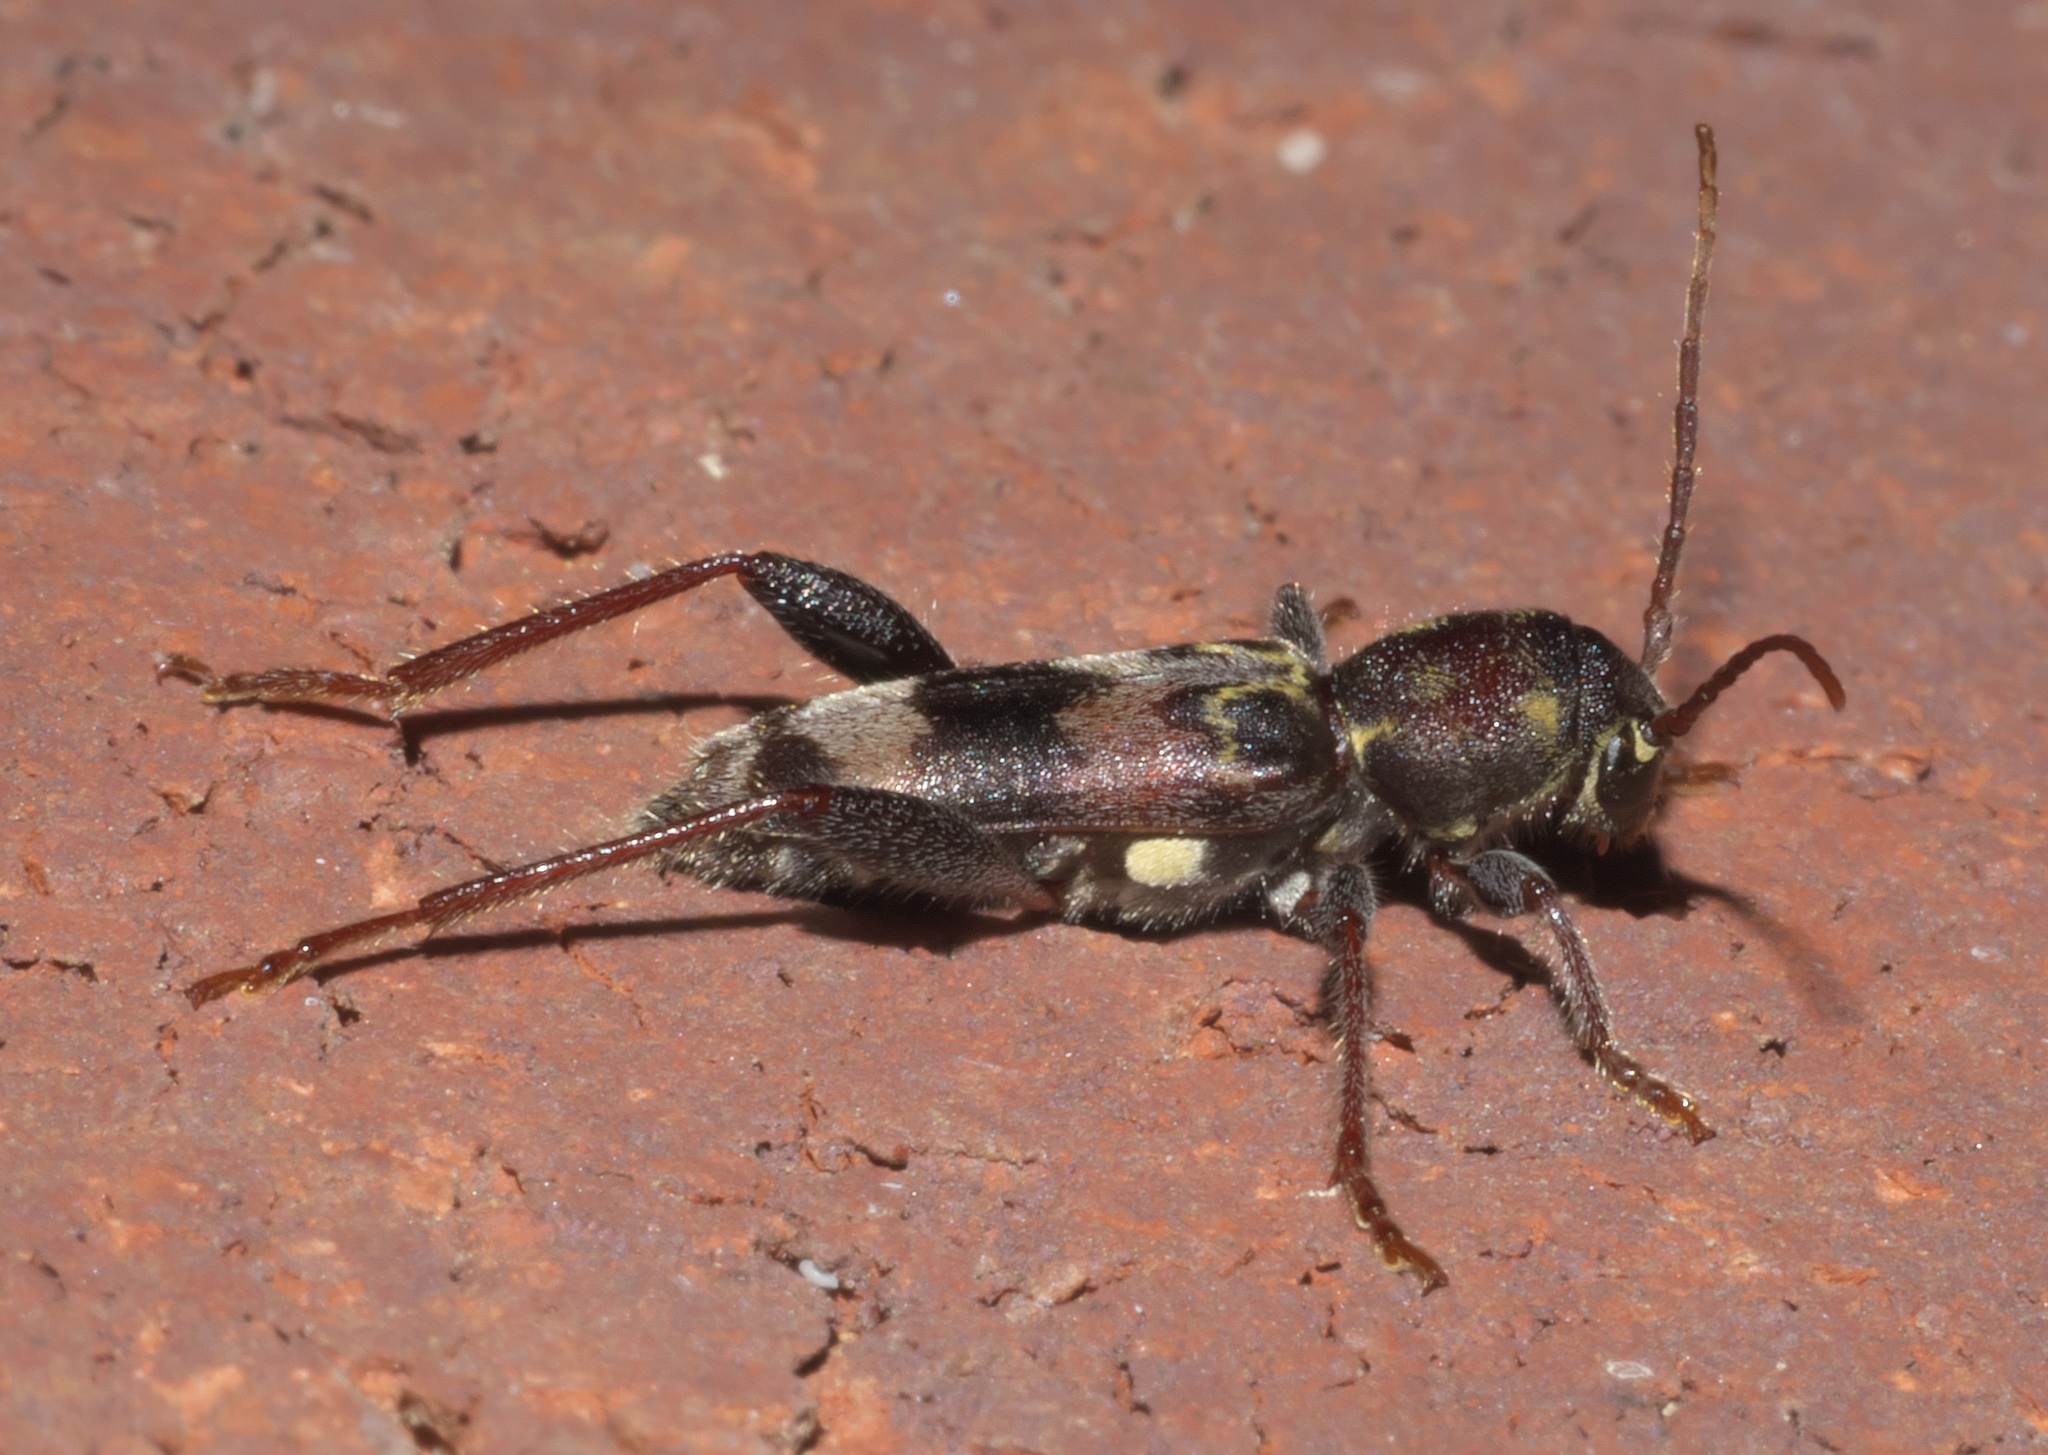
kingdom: Animalia
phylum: Arthropoda
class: Insecta
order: Coleoptera
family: Cerambycidae
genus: Xylotrechus
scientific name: Xylotrechus colonus
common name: Long-horned beetle
